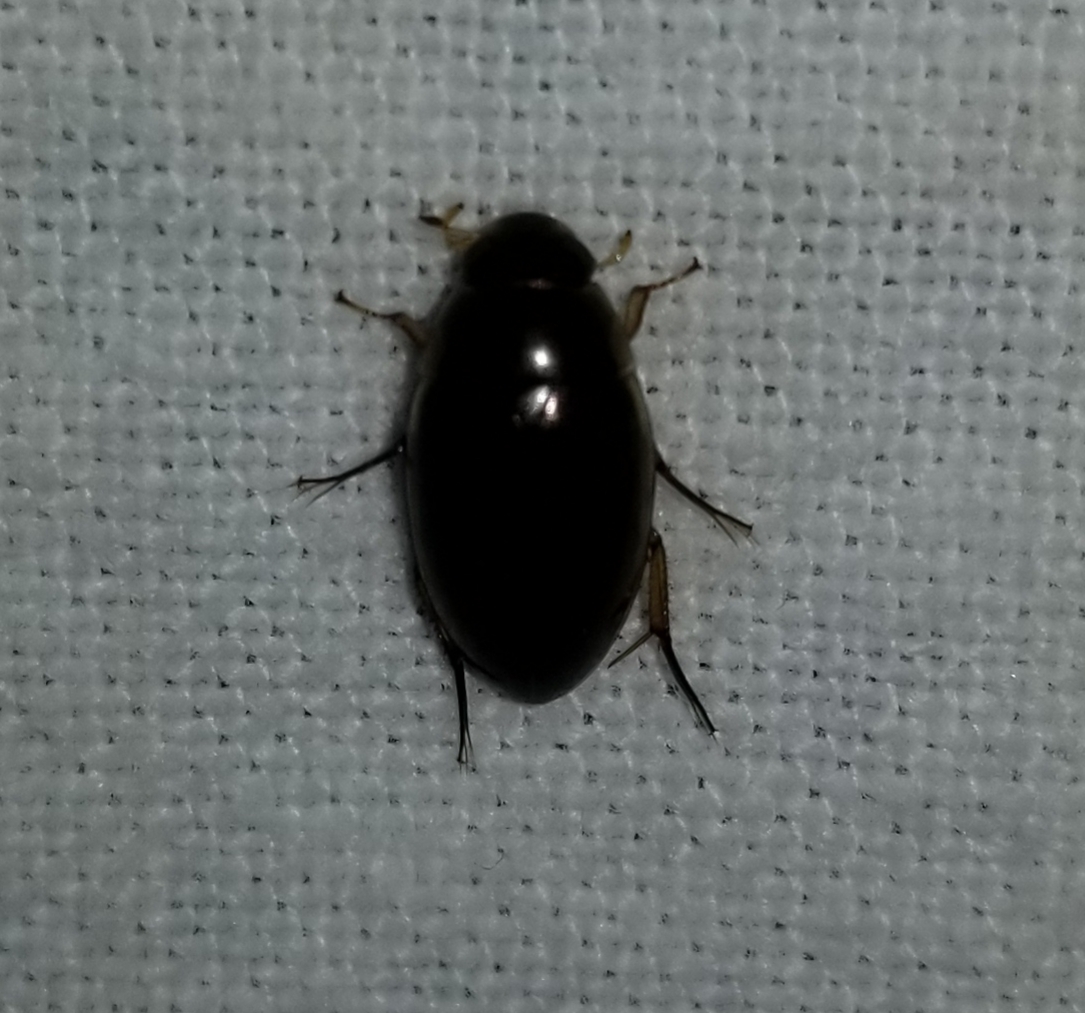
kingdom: Animalia
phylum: Arthropoda
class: Insecta
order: Coleoptera
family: Hydrophilidae
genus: Tropisternus
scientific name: Tropisternus lateralis
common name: Lateral-banded water scavenger beetle
